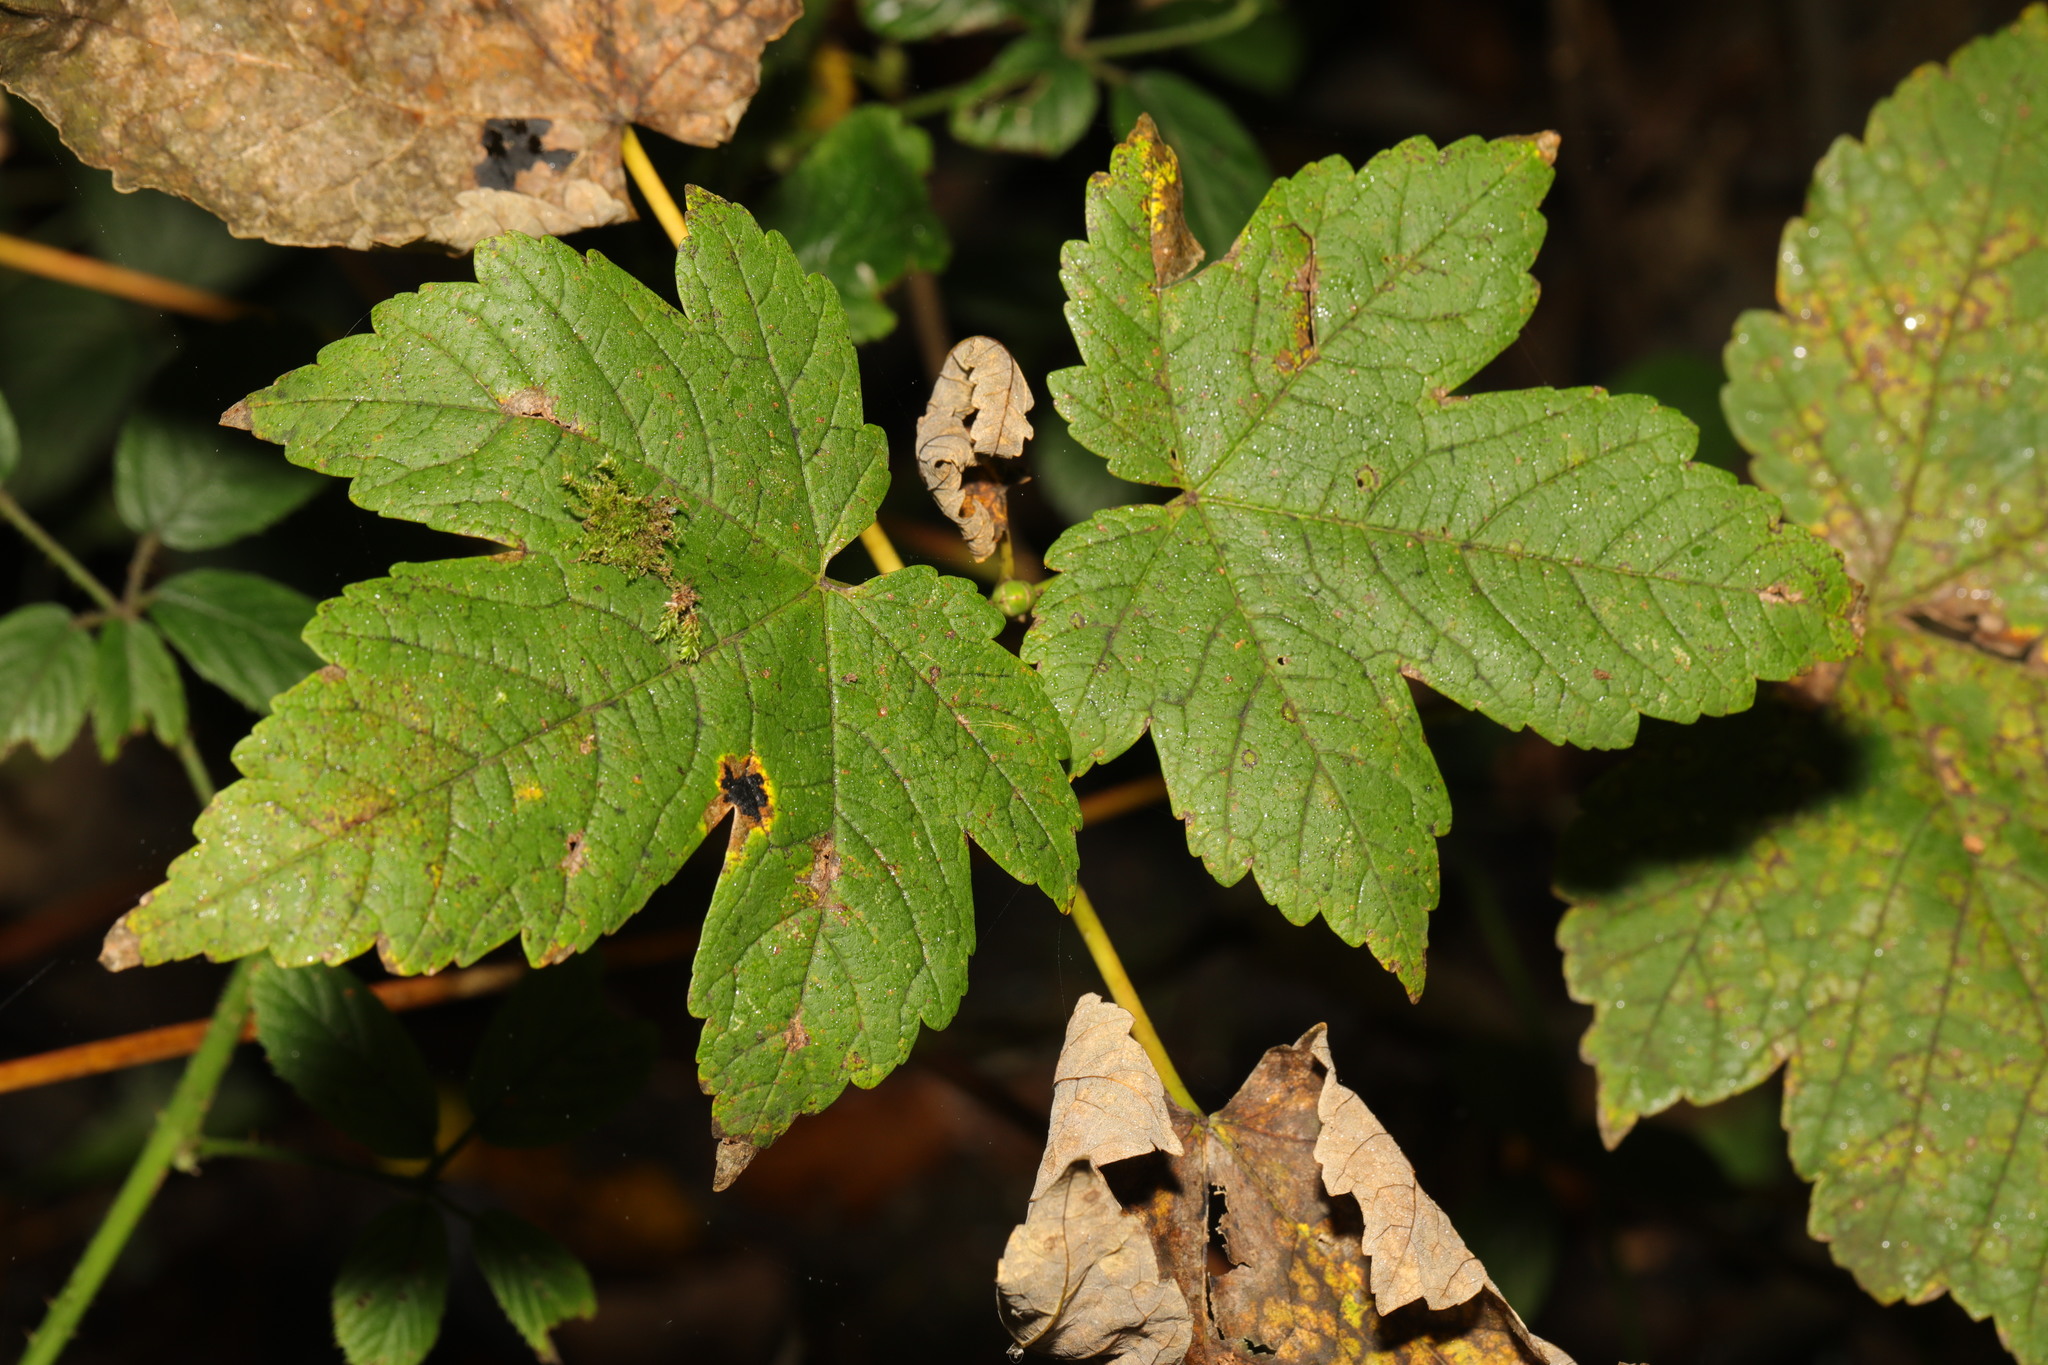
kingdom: Plantae
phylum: Tracheophyta
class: Magnoliopsida
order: Sapindales
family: Sapindaceae
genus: Acer
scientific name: Acer pseudoplatanus
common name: Sycamore
